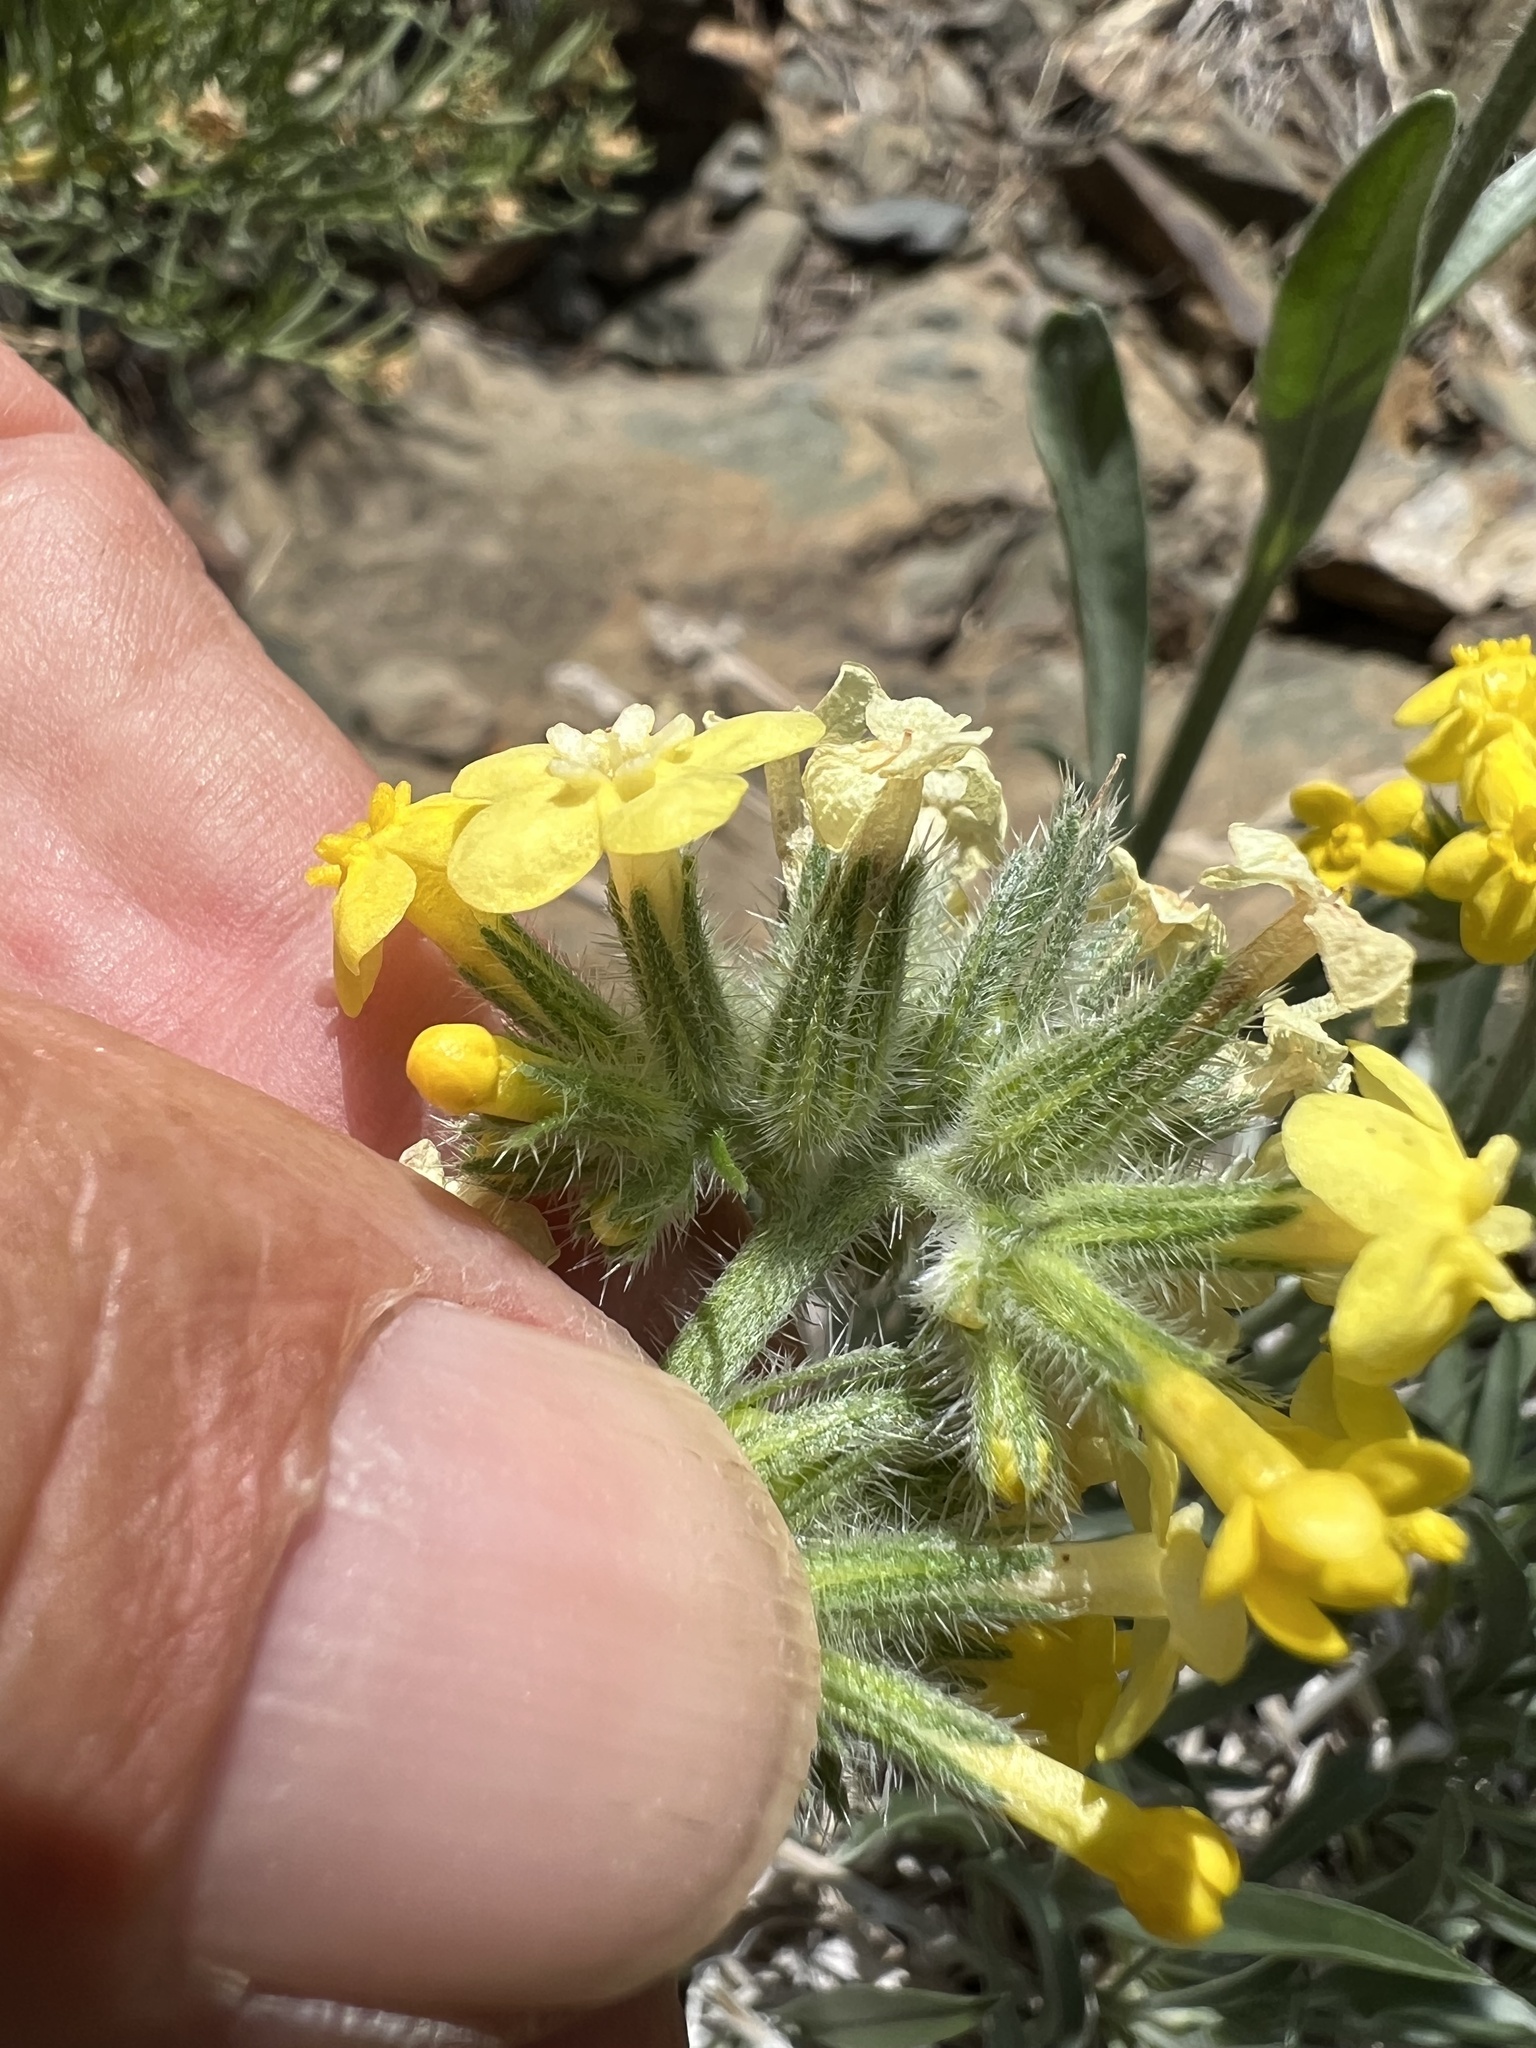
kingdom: Plantae
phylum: Tracheophyta
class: Magnoliopsida
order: Boraginales
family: Boraginaceae
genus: Oreocarya
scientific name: Oreocarya confertiflora
